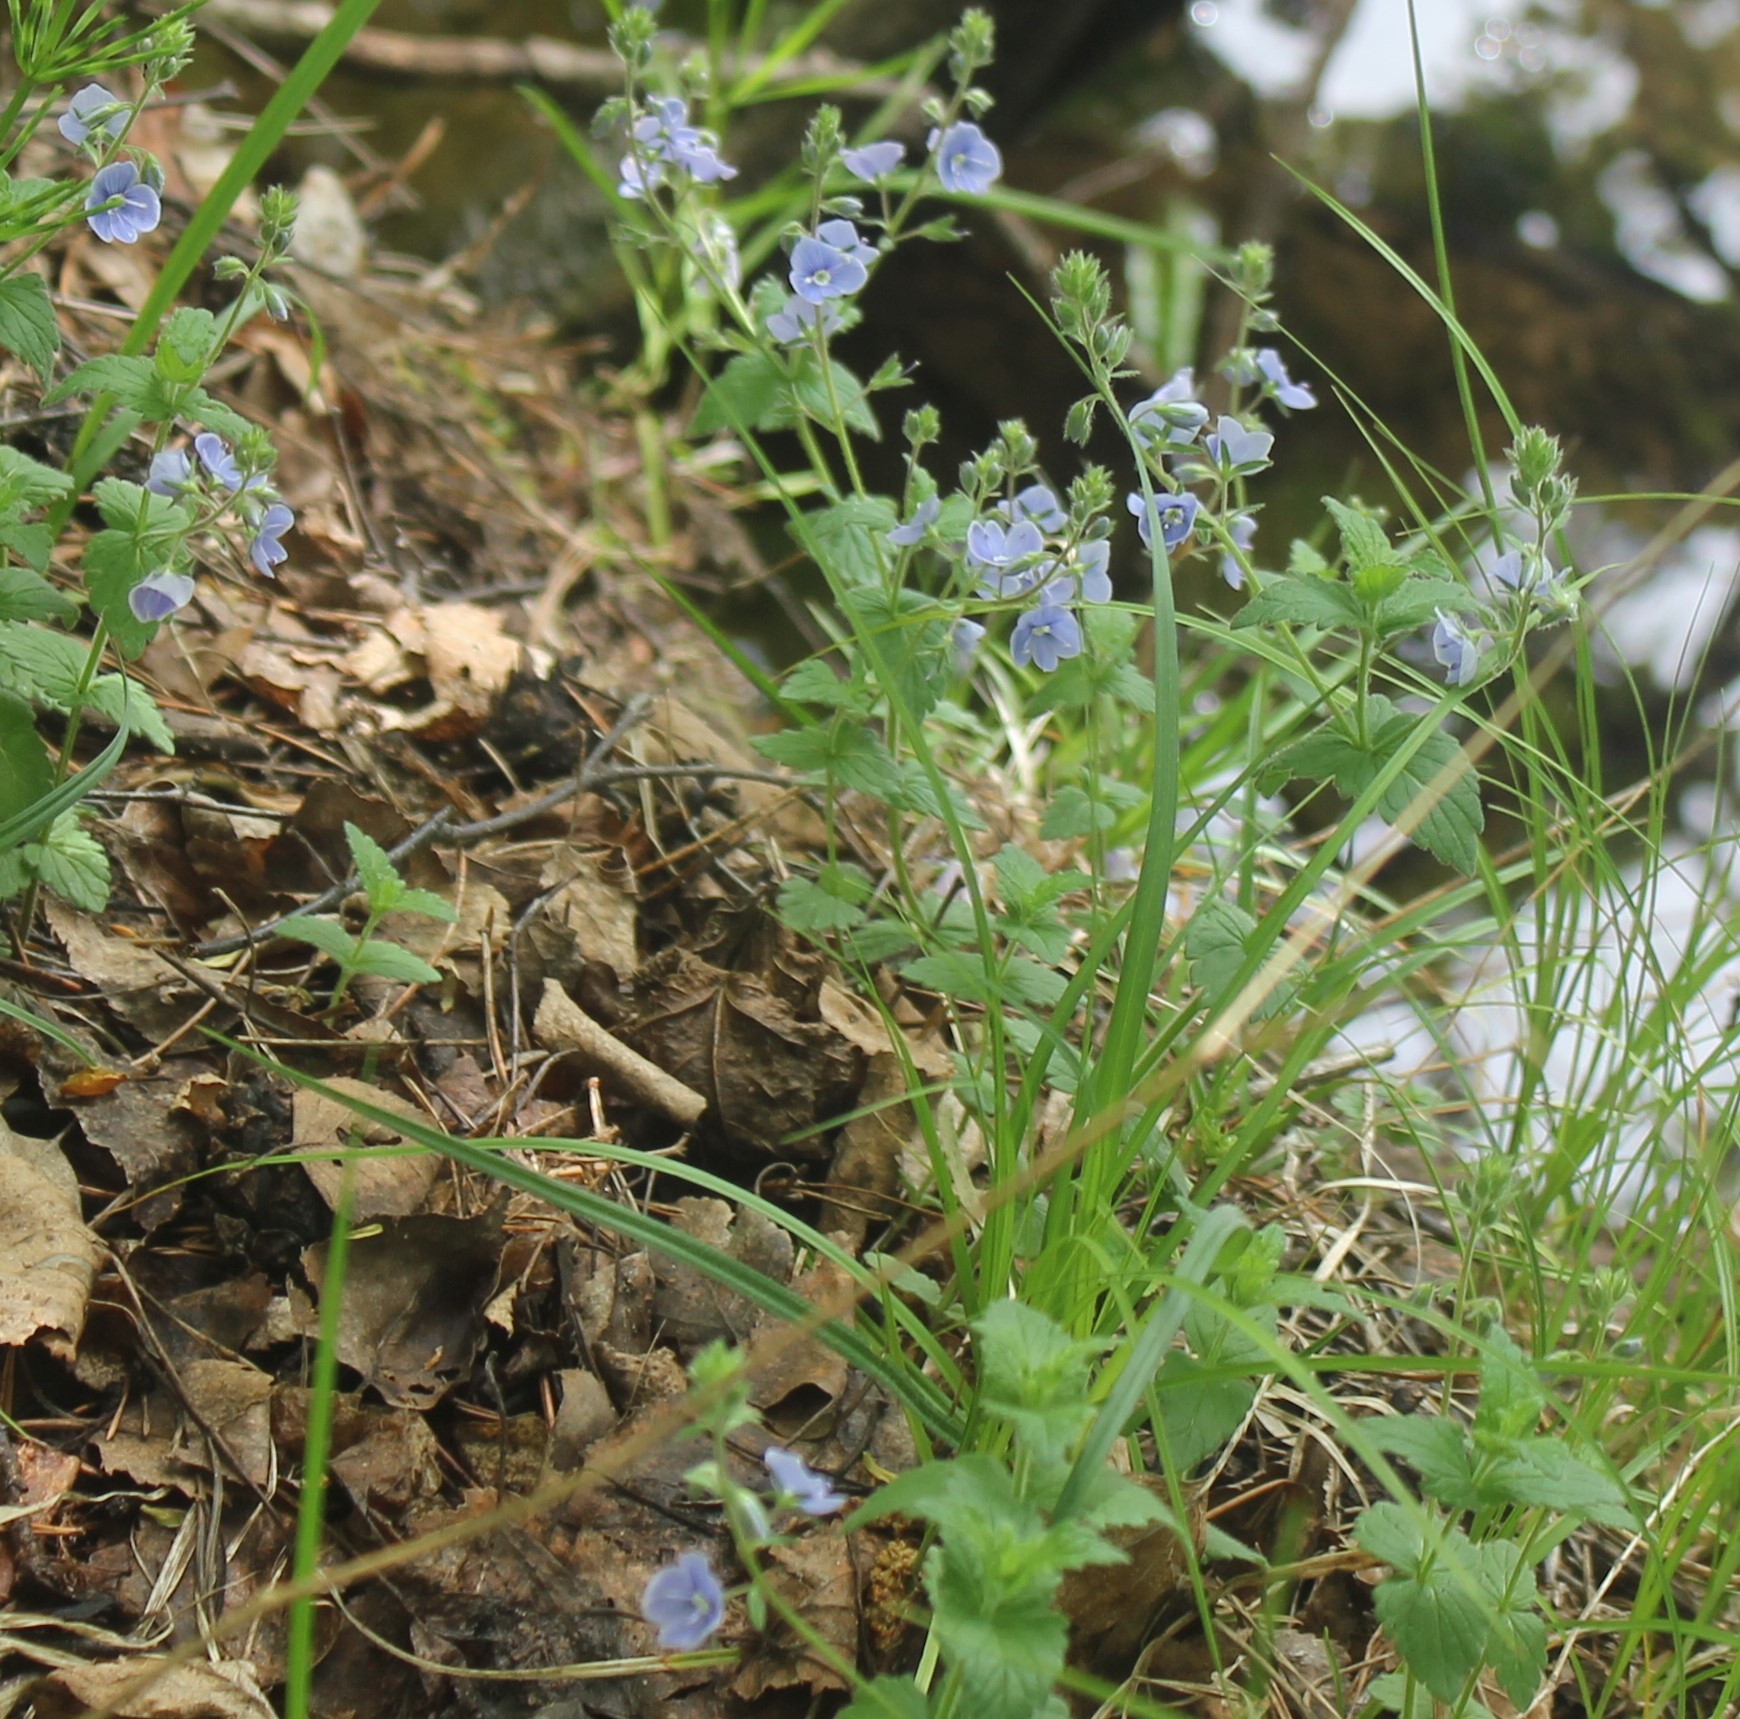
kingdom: Plantae
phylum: Tracheophyta
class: Magnoliopsida
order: Lamiales
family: Plantaginaceae
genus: Veronica
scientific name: Veronica chamaedrys
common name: Germander speedwell
